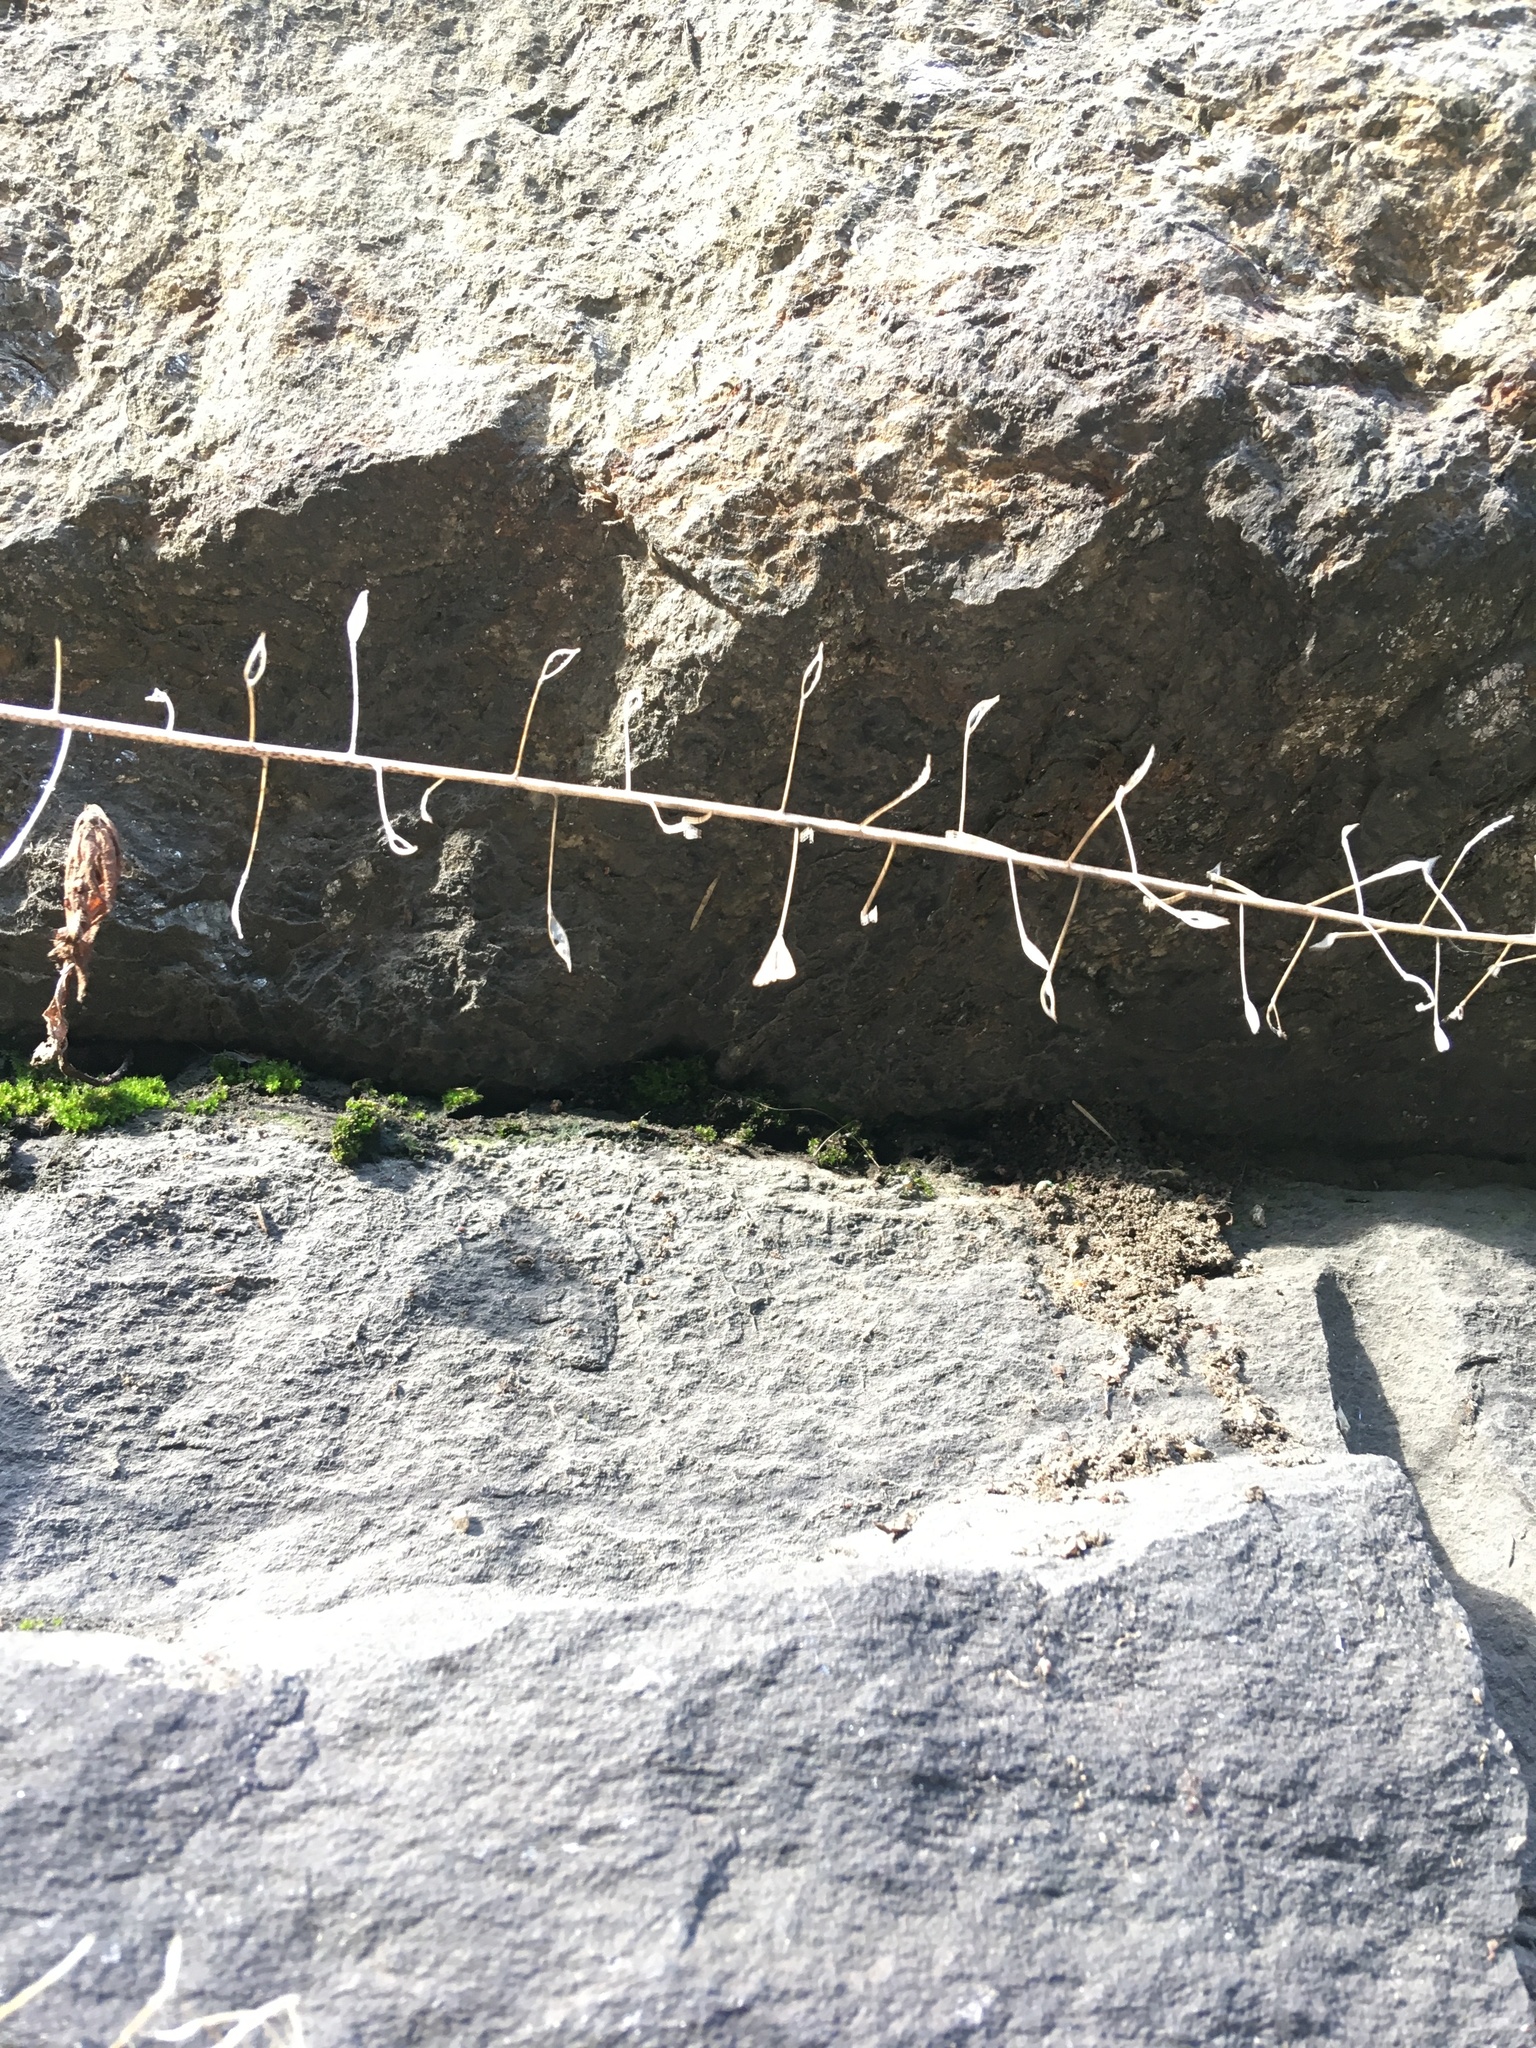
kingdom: Plantae
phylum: Tracheophyta
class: Magnoliopsida
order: Brassicales
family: Brassicaceae
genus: Capsella
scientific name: Capsella bursa-pastoris
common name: Shepherd's purse
